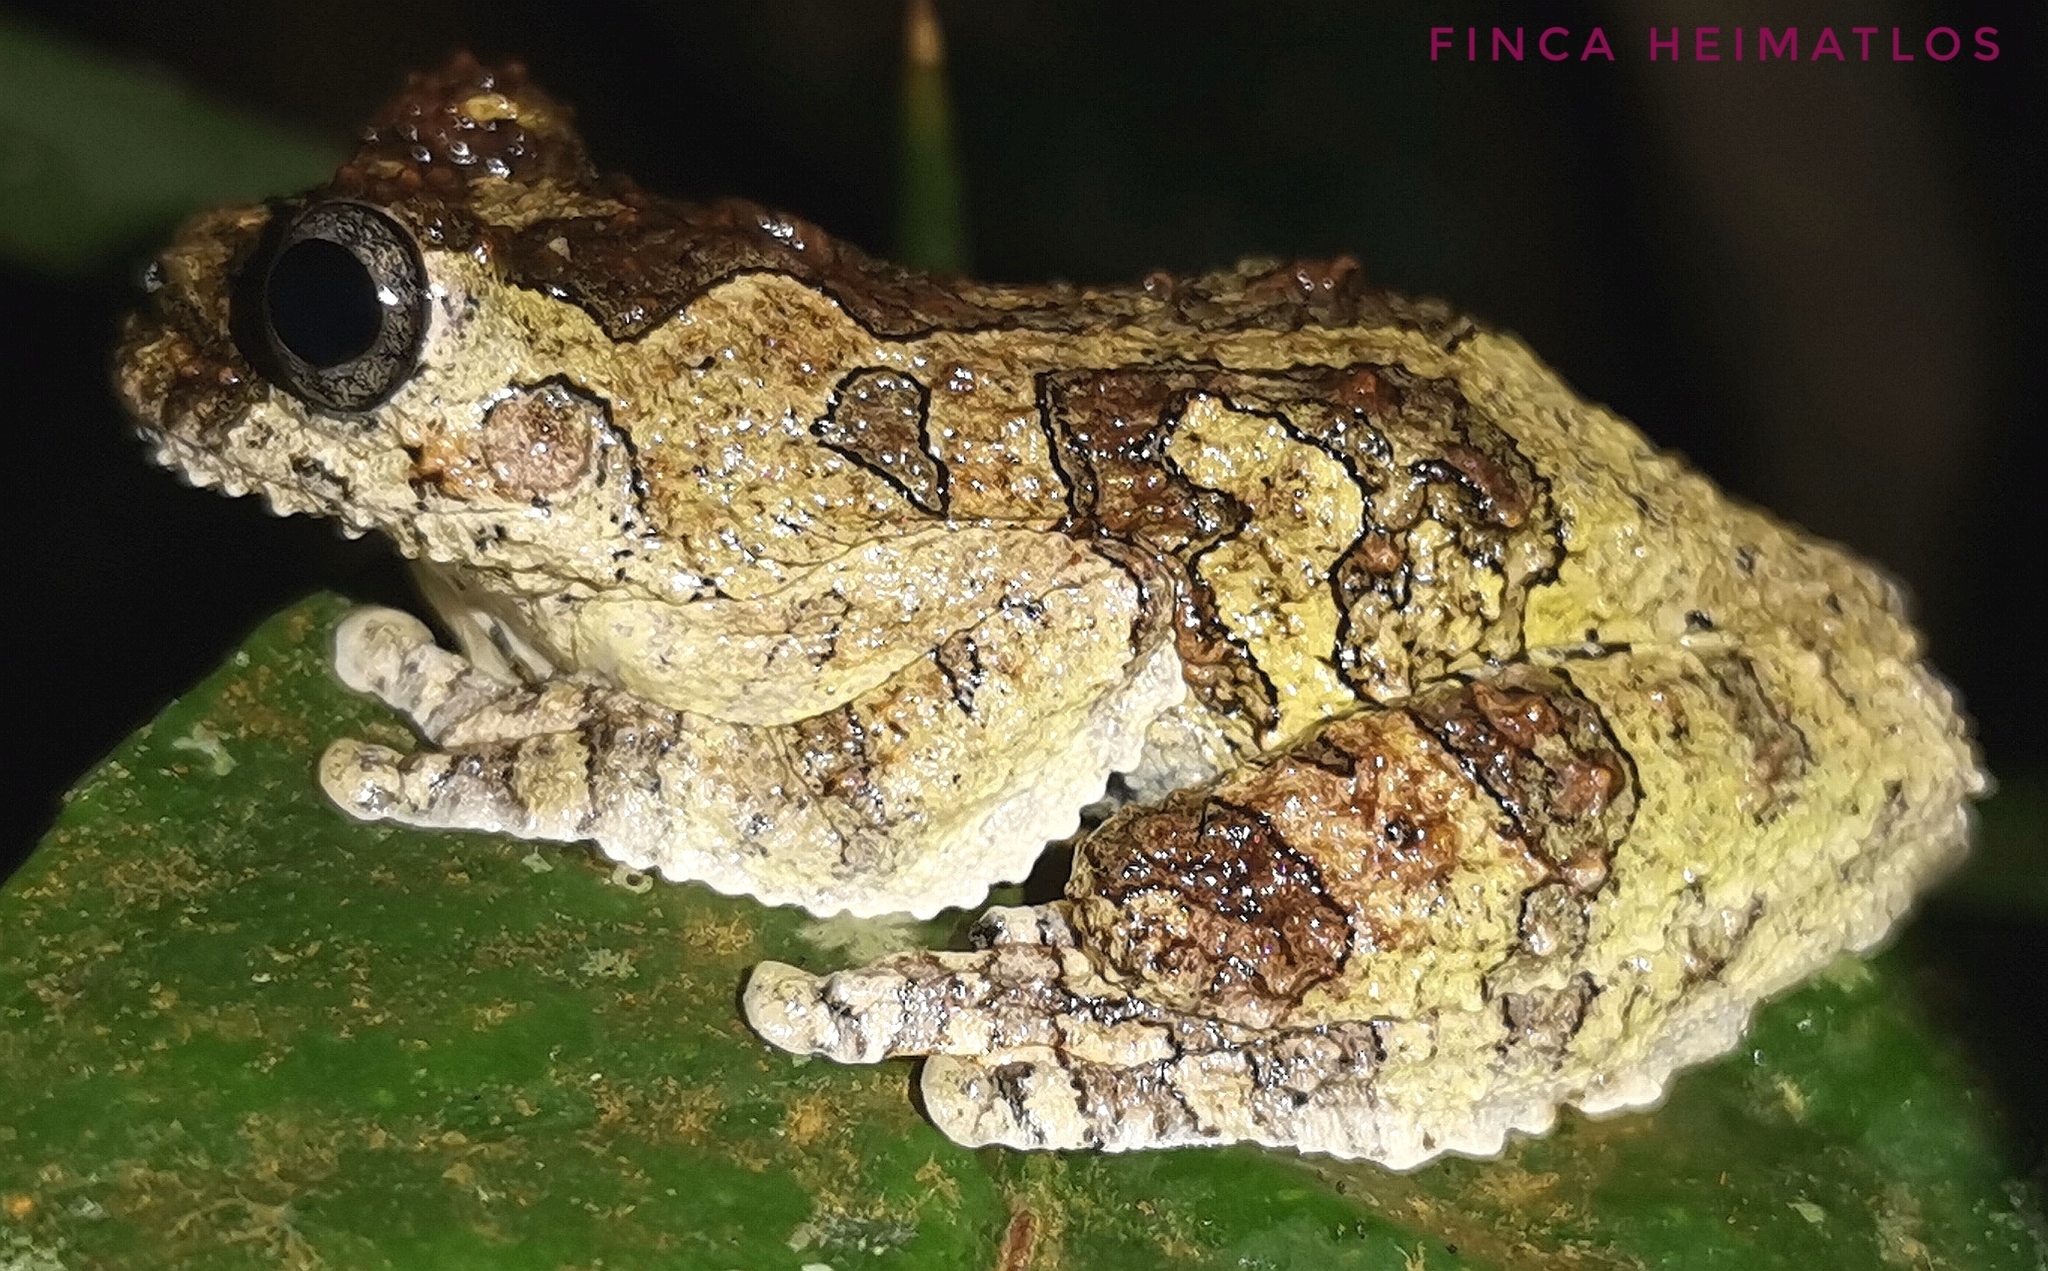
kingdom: Animalia
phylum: Chordata
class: Amphibia
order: Anura
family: Hylidae
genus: Dendropsophus
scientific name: Dendropsophus marmoratus
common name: Marbled treefrog
